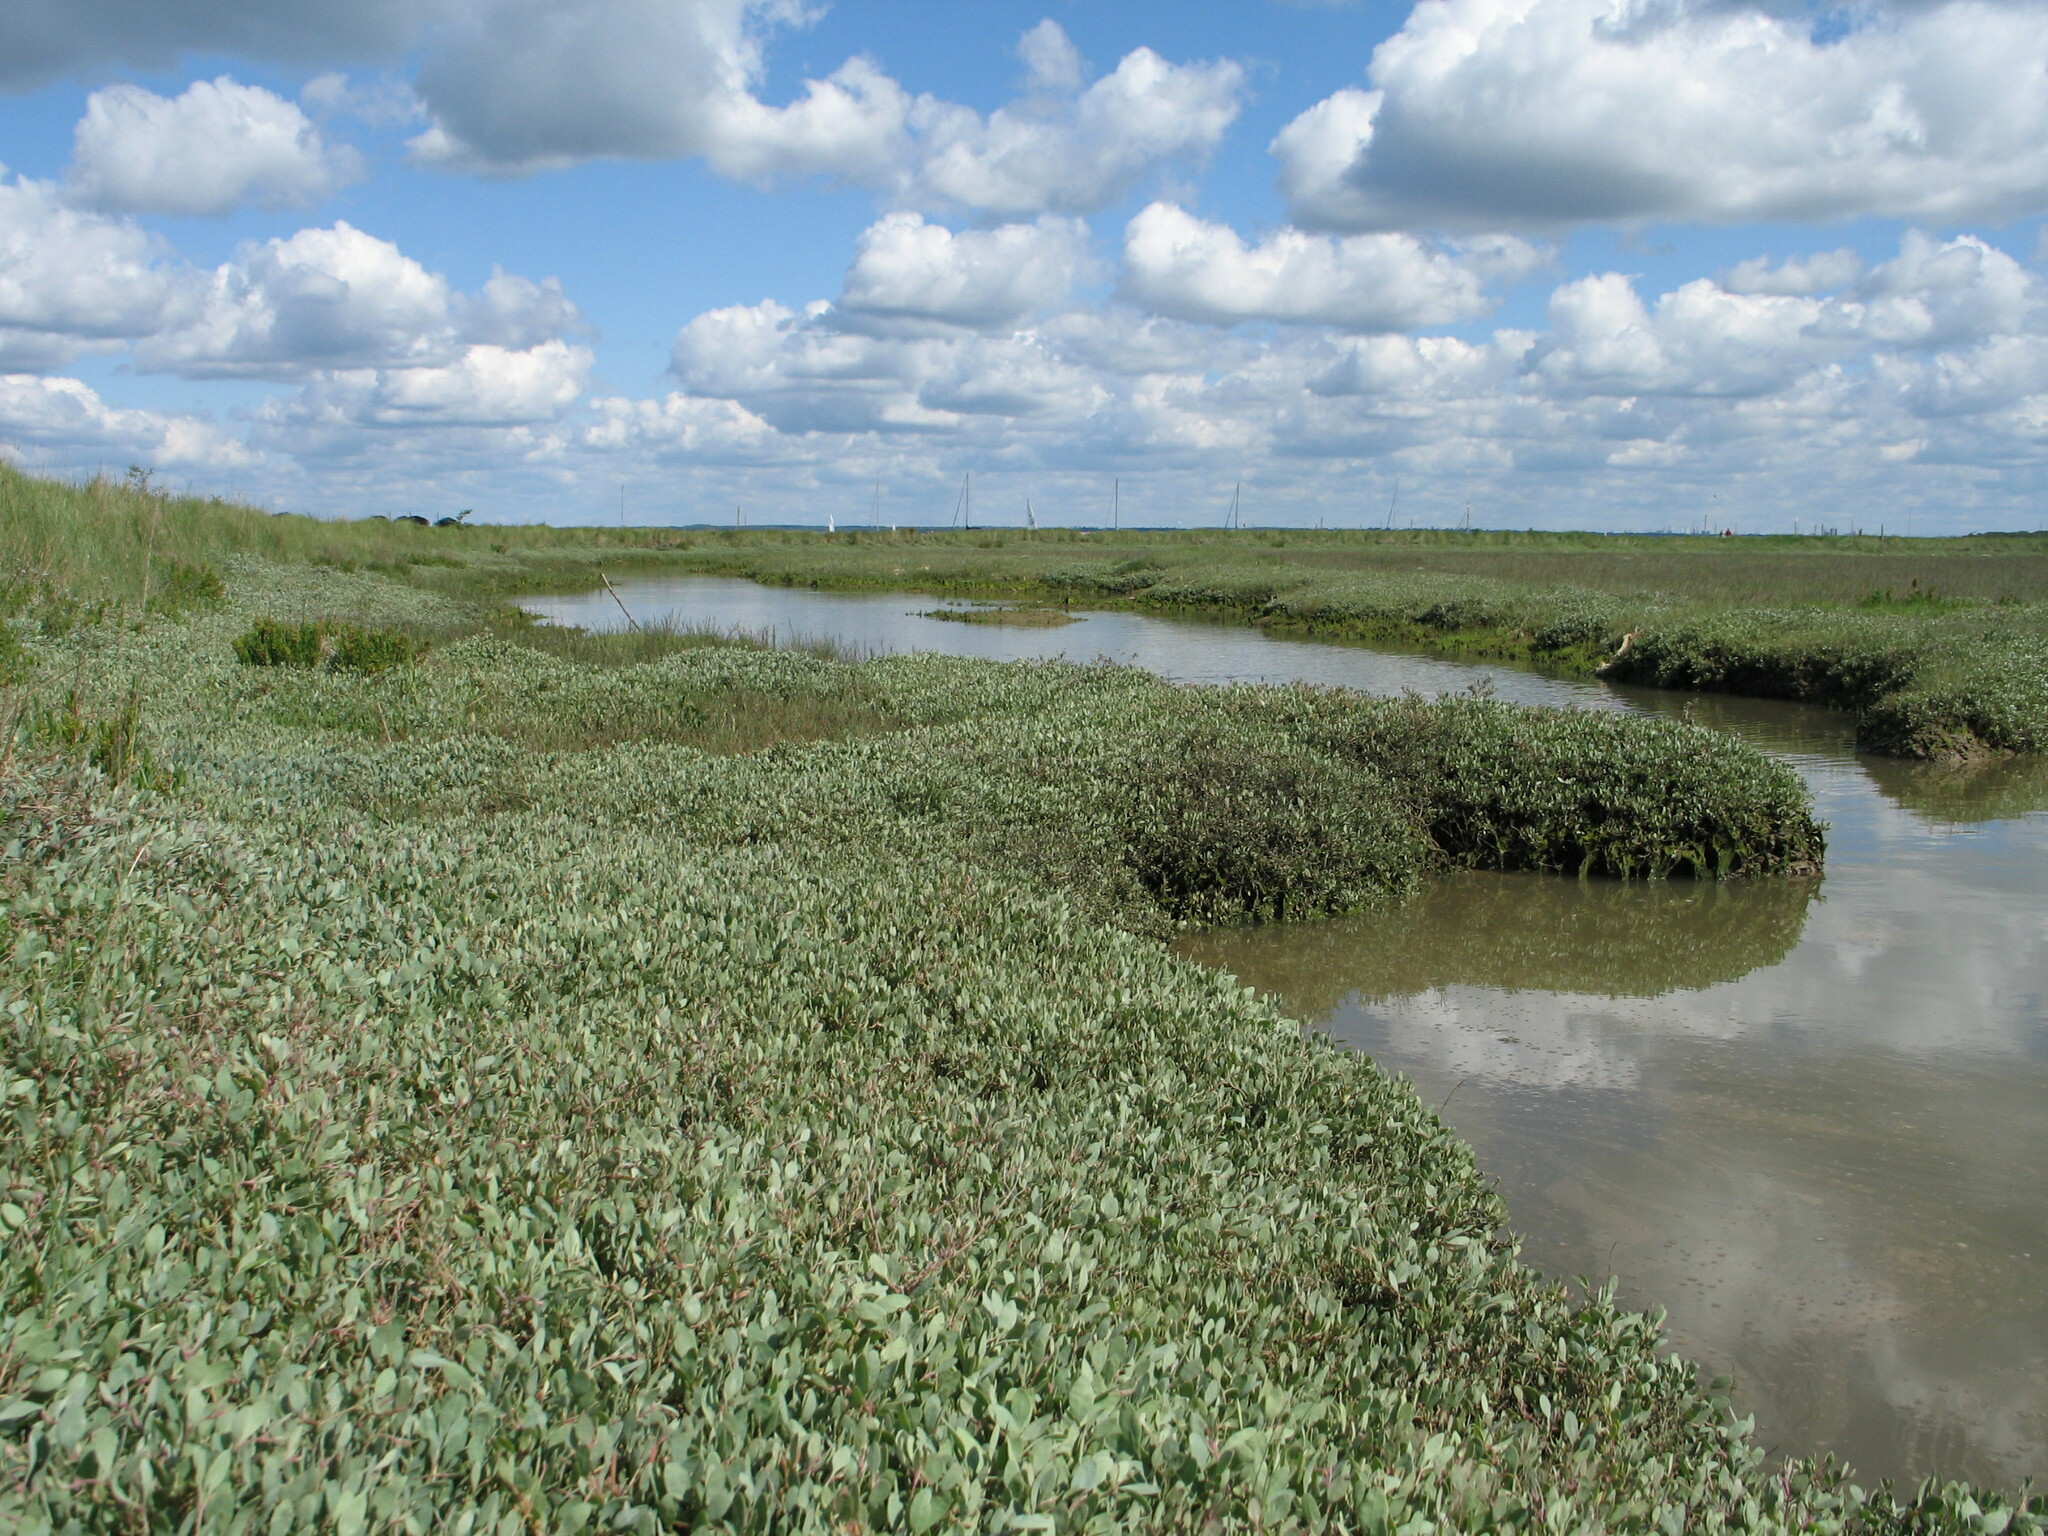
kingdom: Plantae
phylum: Tracheophyta
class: Magnoliopsida
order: Caryophyllales
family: Amaranthaceae
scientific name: Amaranthaceae
